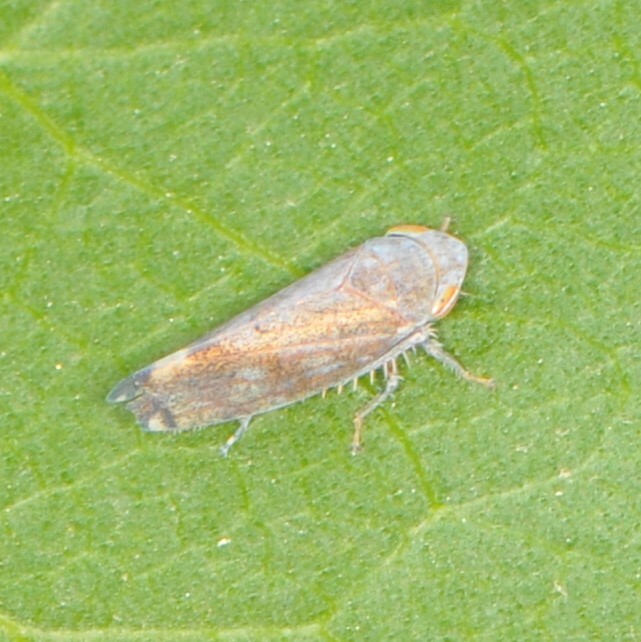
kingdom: Animalia
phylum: Arthropoda
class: Insecta
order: Hemiptera
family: Cicadellidae
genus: Fieberiella
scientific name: Fieberiella florii
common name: Flor’s leafhopper
